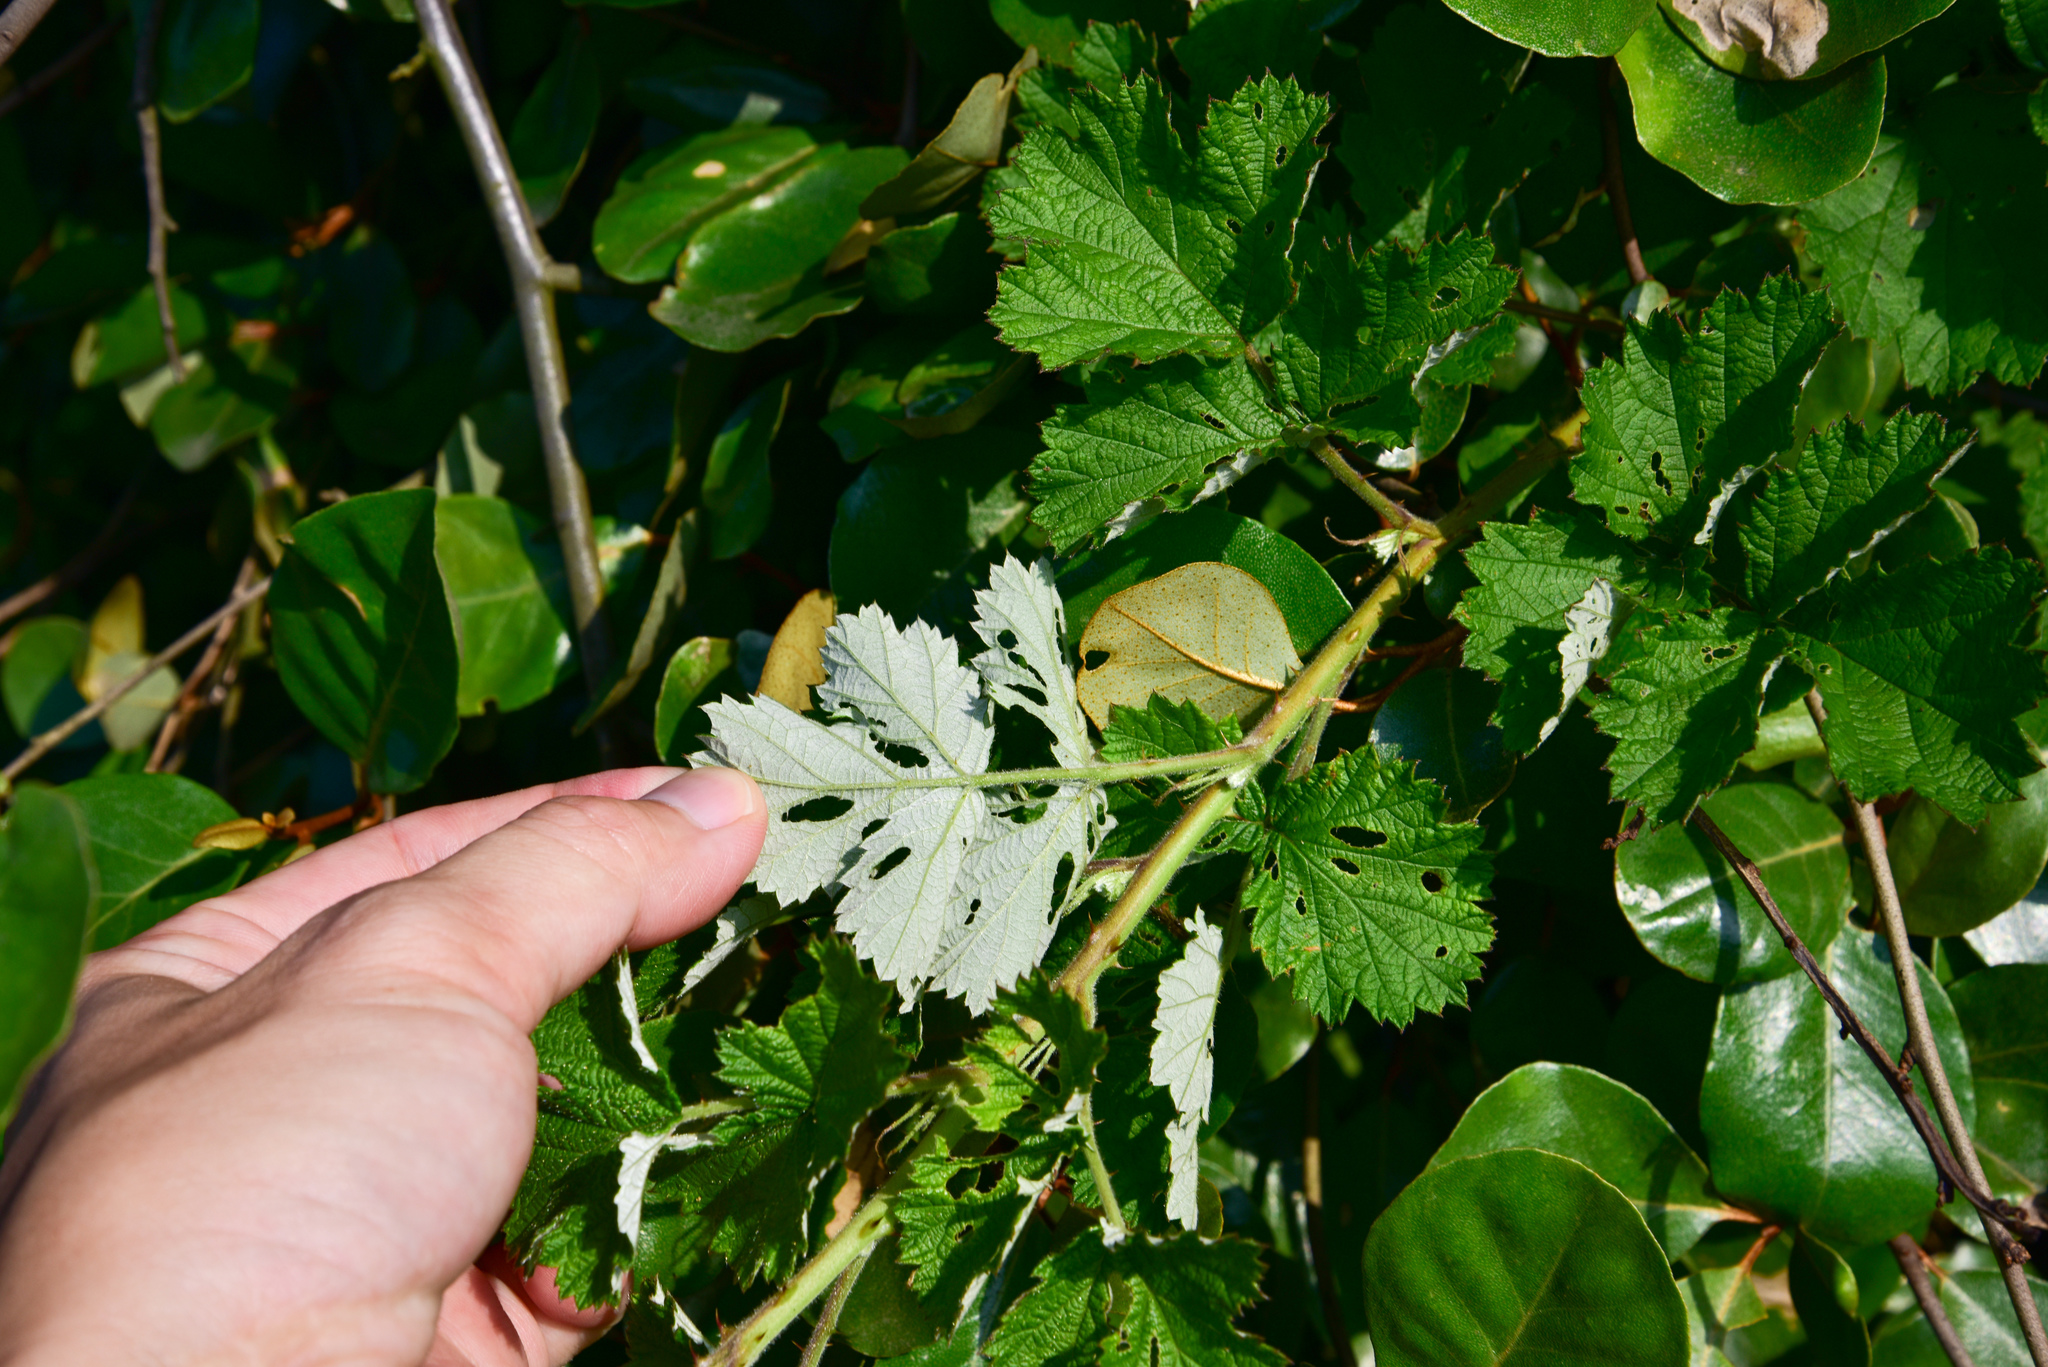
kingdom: Plantae
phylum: Tracheophyta
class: Magnoliopsida
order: Rosales
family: Rosaceae
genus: Rubus
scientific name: Rubus parvifolius
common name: Threeleaf blackberry
